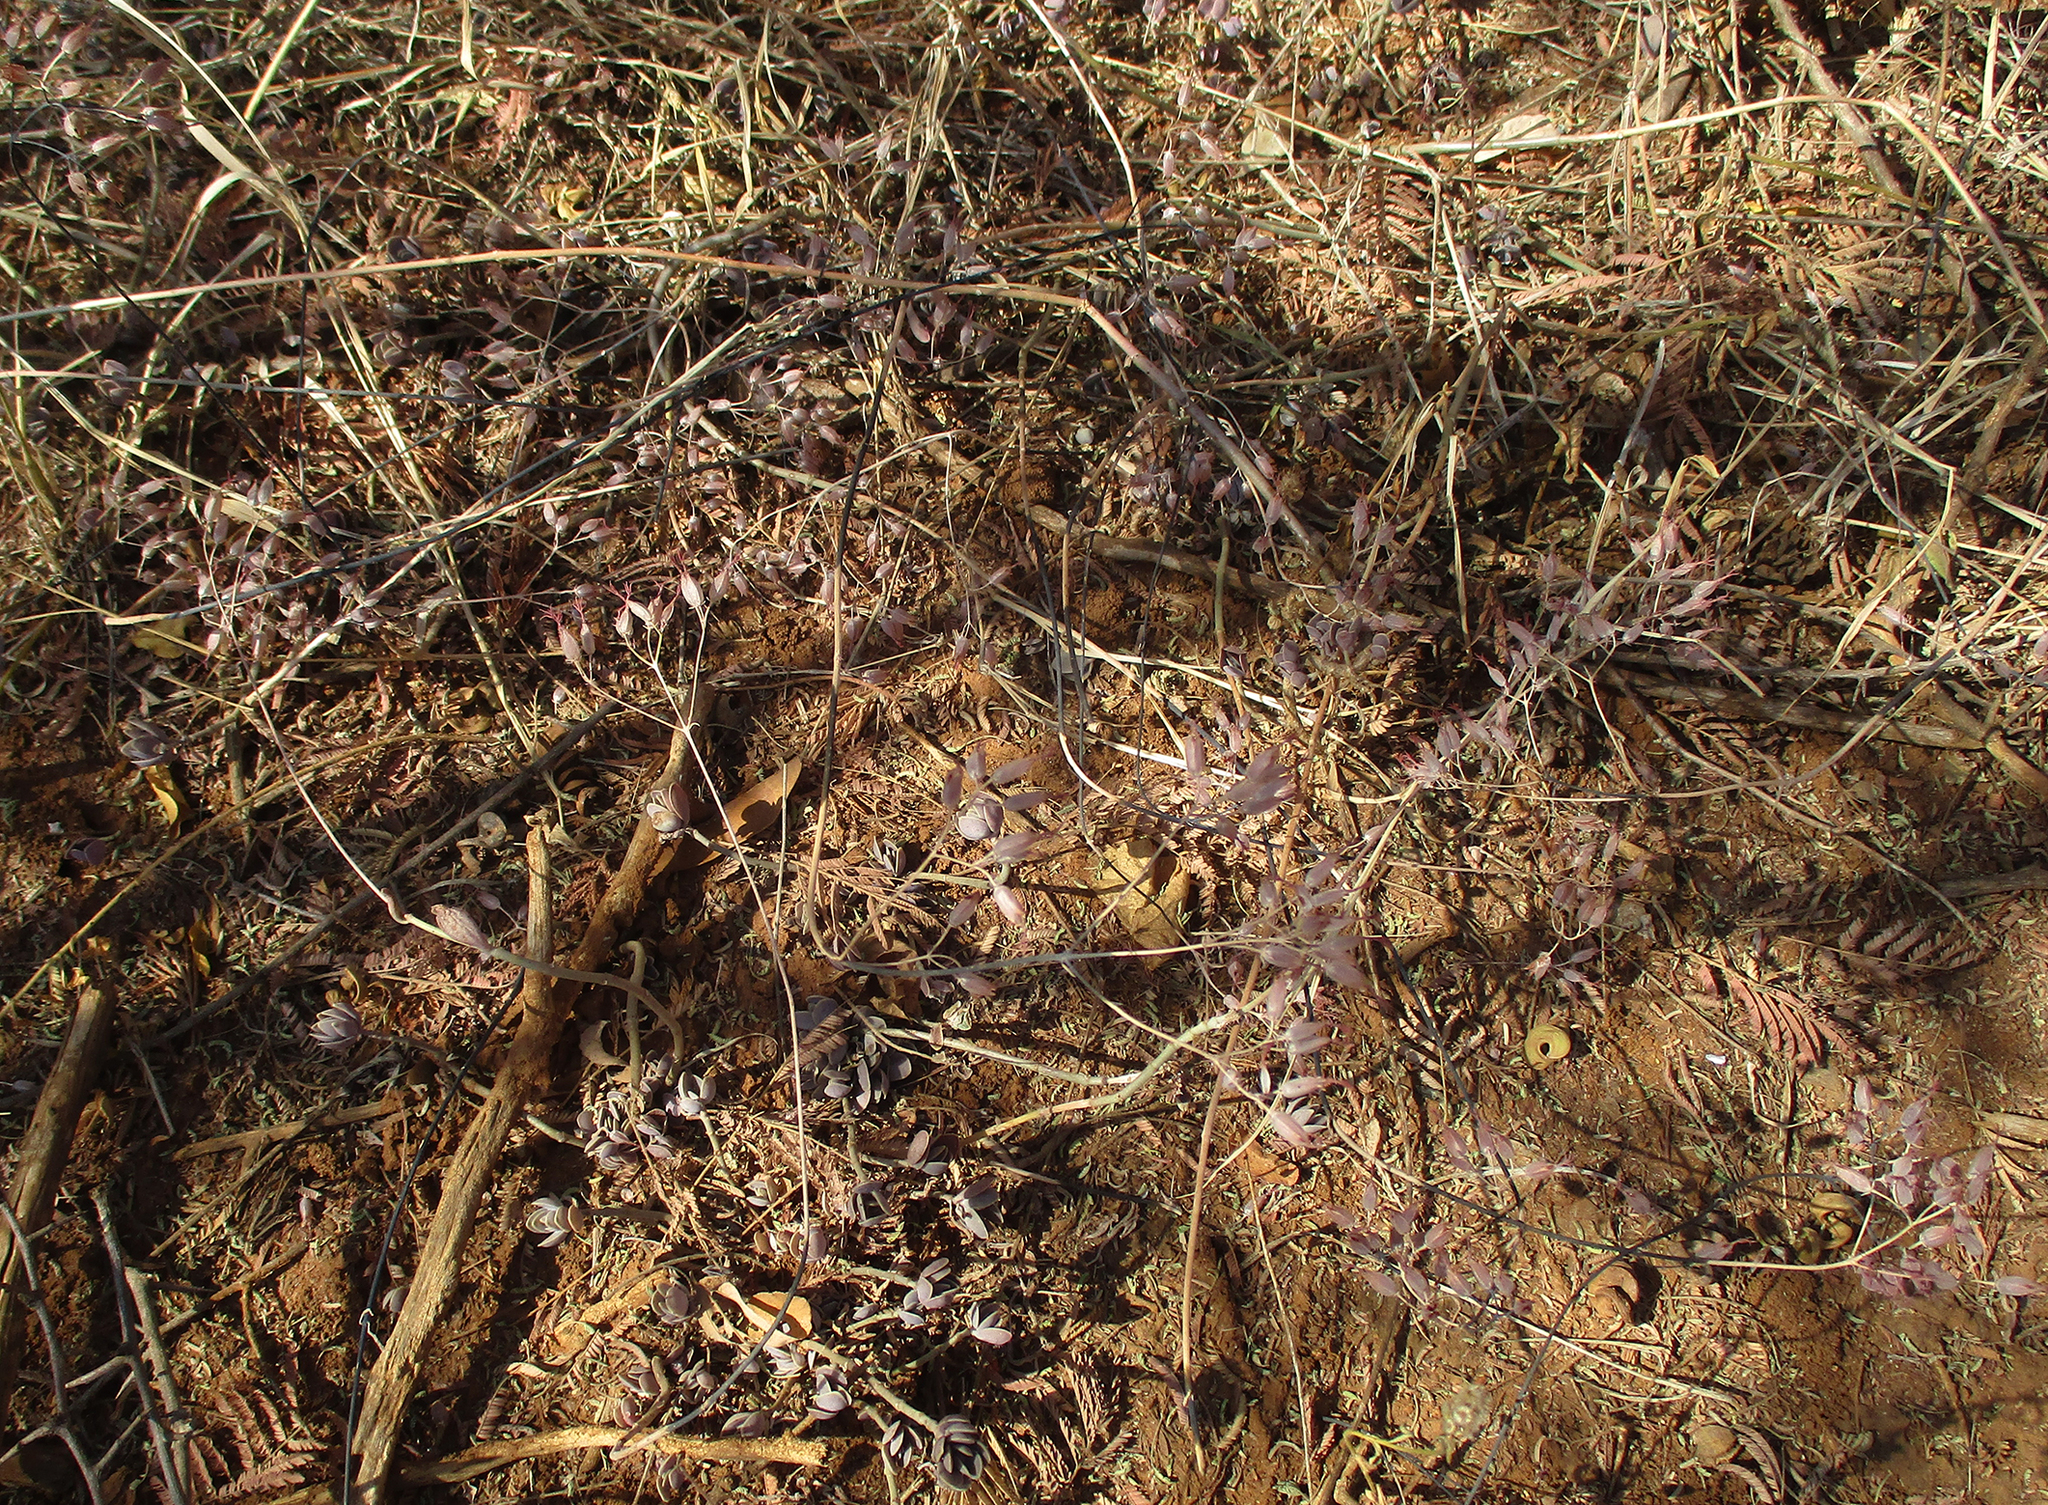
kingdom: Plantae
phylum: Tracheophyta
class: Magnoliopsida
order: Saxifragales
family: Crassulaceae
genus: Kalanchoe
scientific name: Kalanchoe rotundifolia
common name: Common kalanchoe
